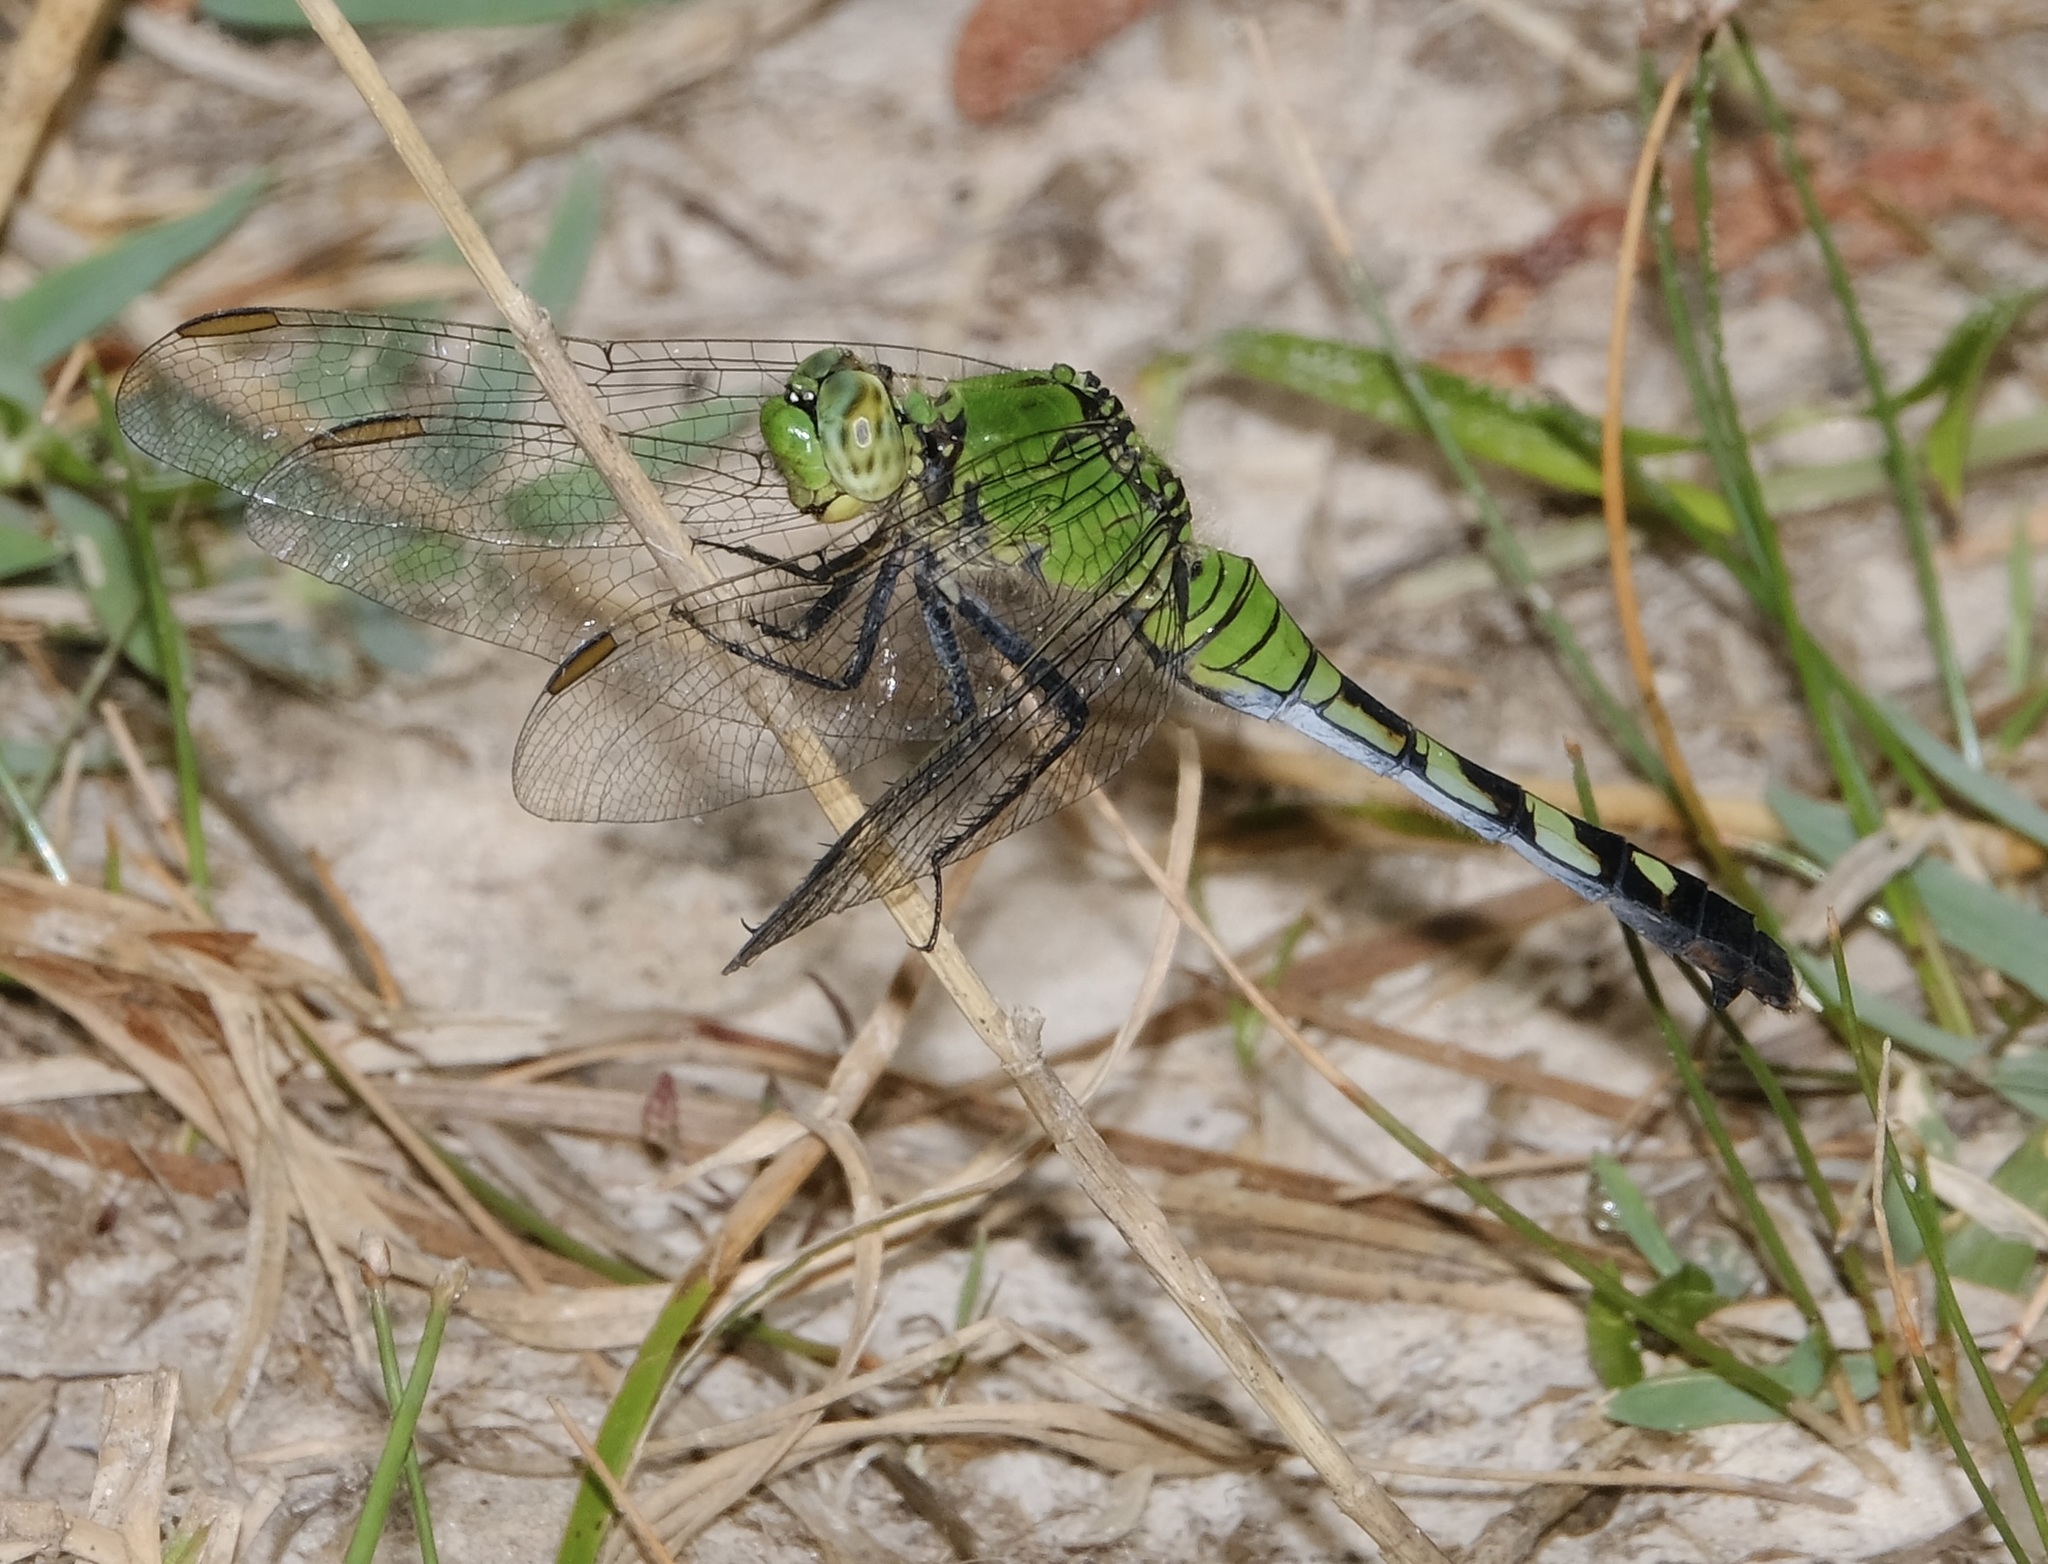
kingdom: Animalia
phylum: Arthropoda
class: Insecta
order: Odonata
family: Libellulidae
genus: Erythemis
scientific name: Erythemis simplicicollis
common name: Eastern pondhawk
